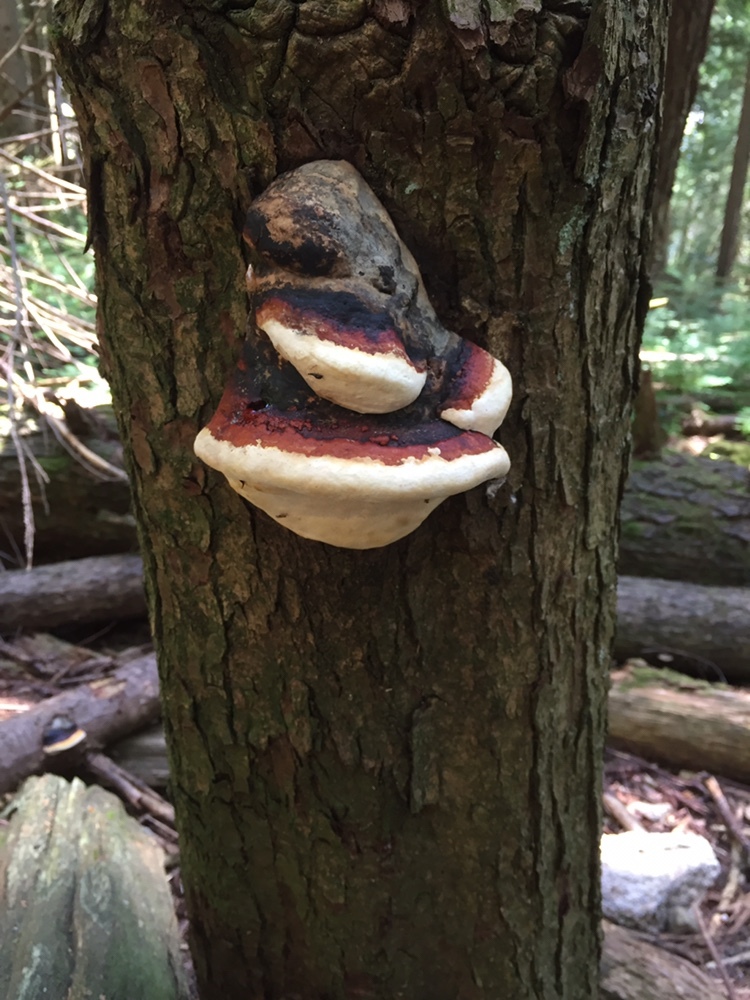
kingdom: Fungi
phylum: Basidiomycota
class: Agaricomycetes
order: Polyporales
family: Fomitopsidaceae
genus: Fomitopsis
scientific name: Fomitopsis mounceae
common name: Northern red belt
